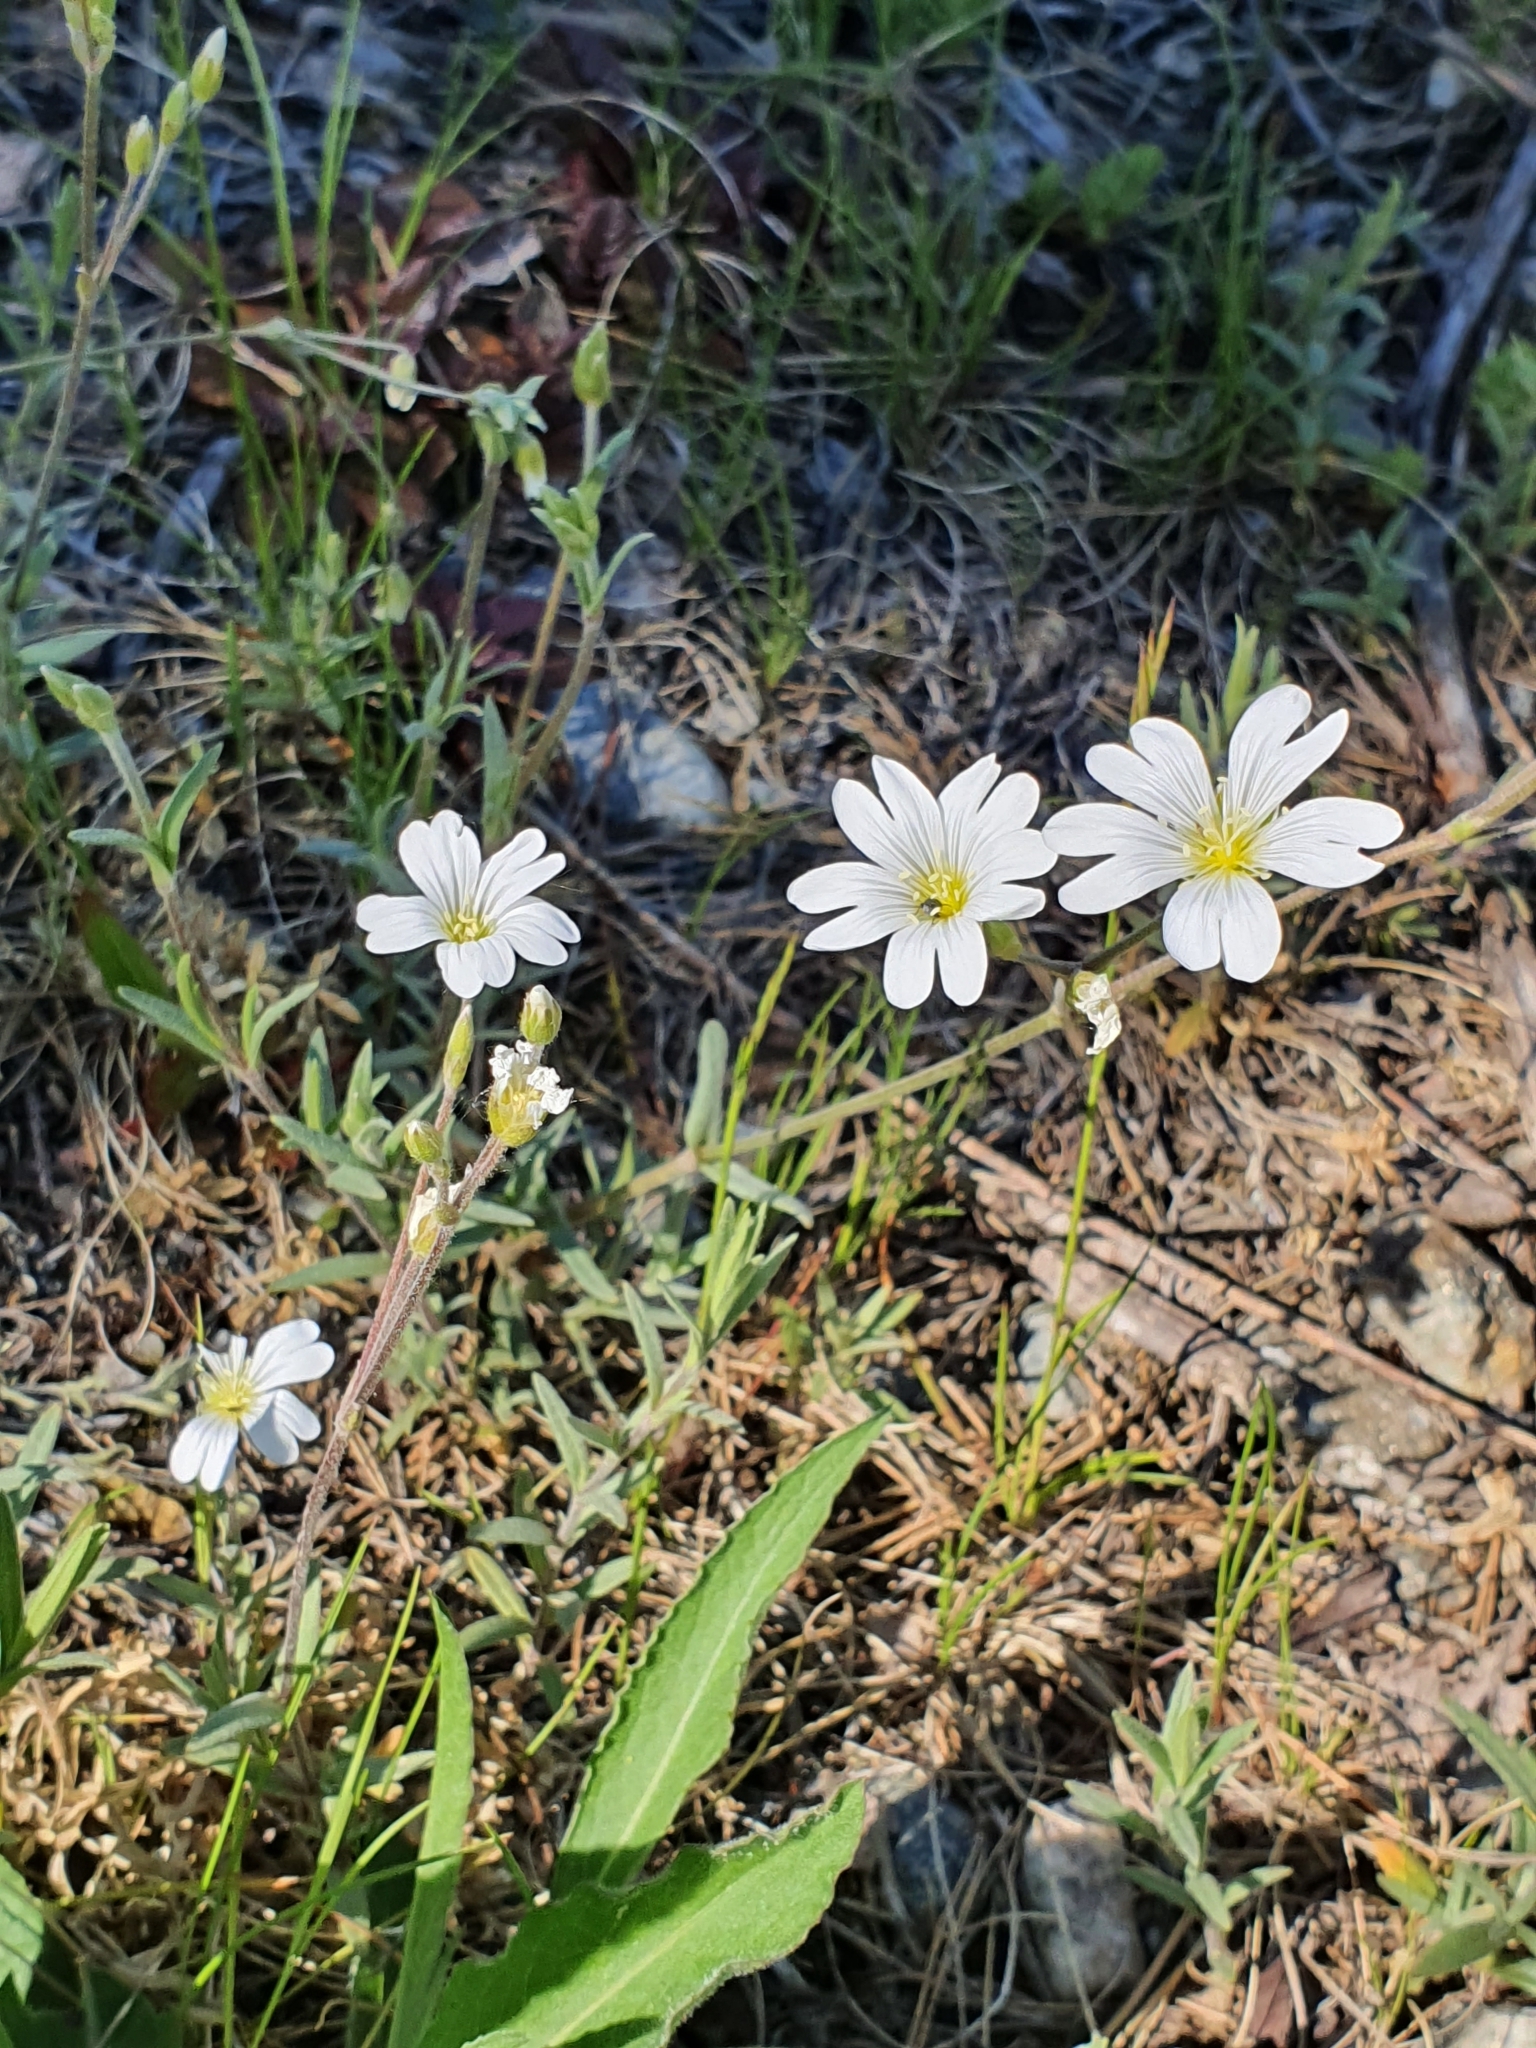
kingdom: Plantae
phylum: Tracheophyta
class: Magnoliopsida
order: Caryophyllales
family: Caryophyllaceae
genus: Cerastium
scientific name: Cerastium arvense
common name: Field mouse-ear
